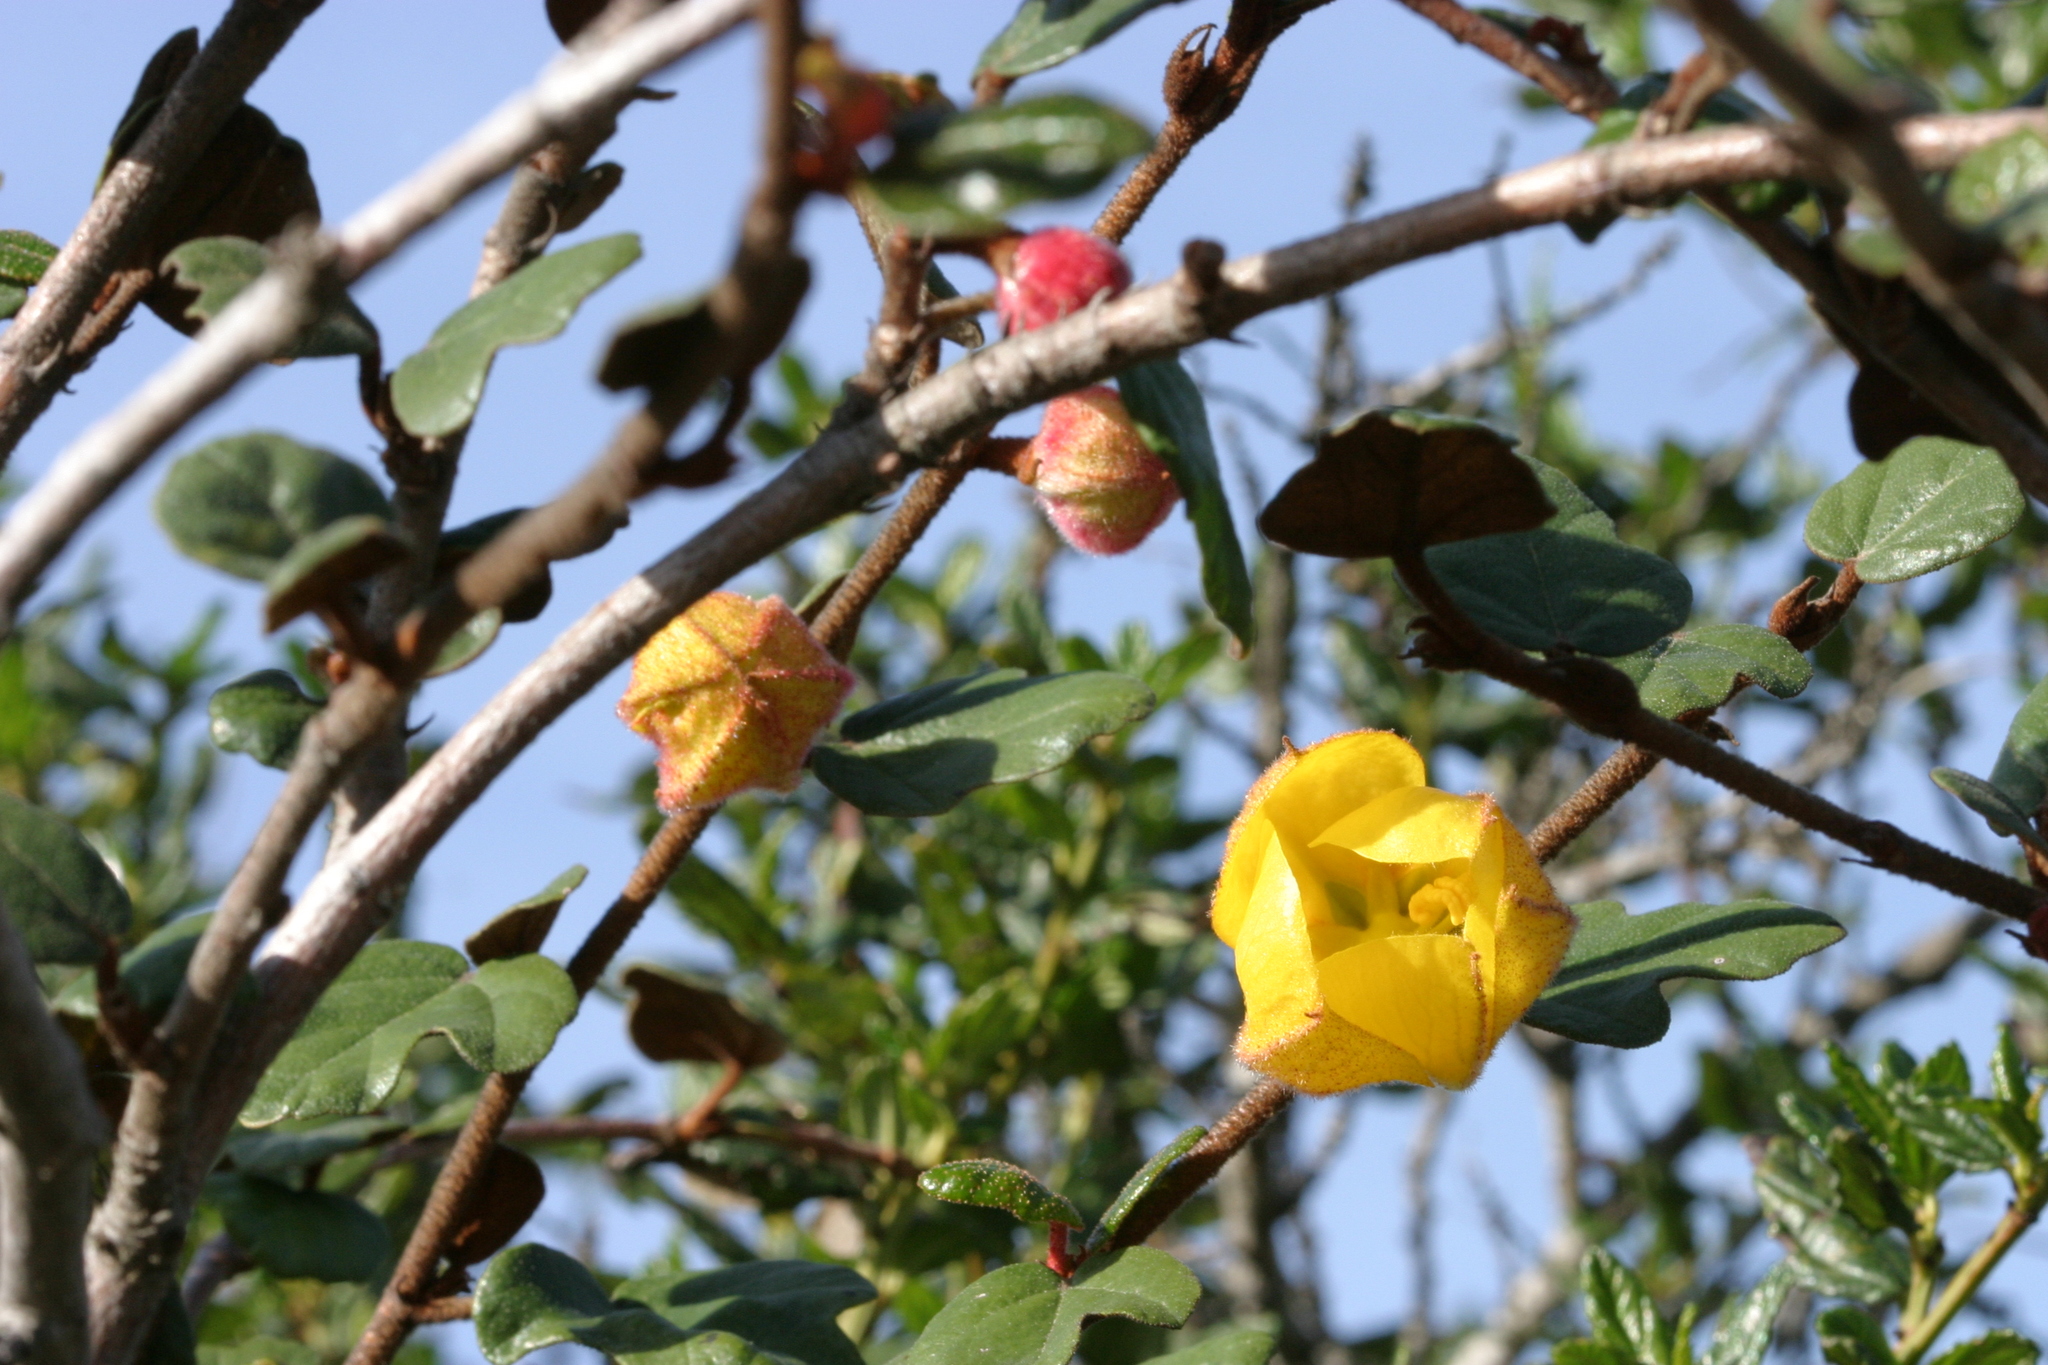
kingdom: Plantae
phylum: Tracheophyta
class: Magnoliopsida
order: Malvales
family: Malvaceae
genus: Fremontodendron
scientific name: Fremontodendron californicum
